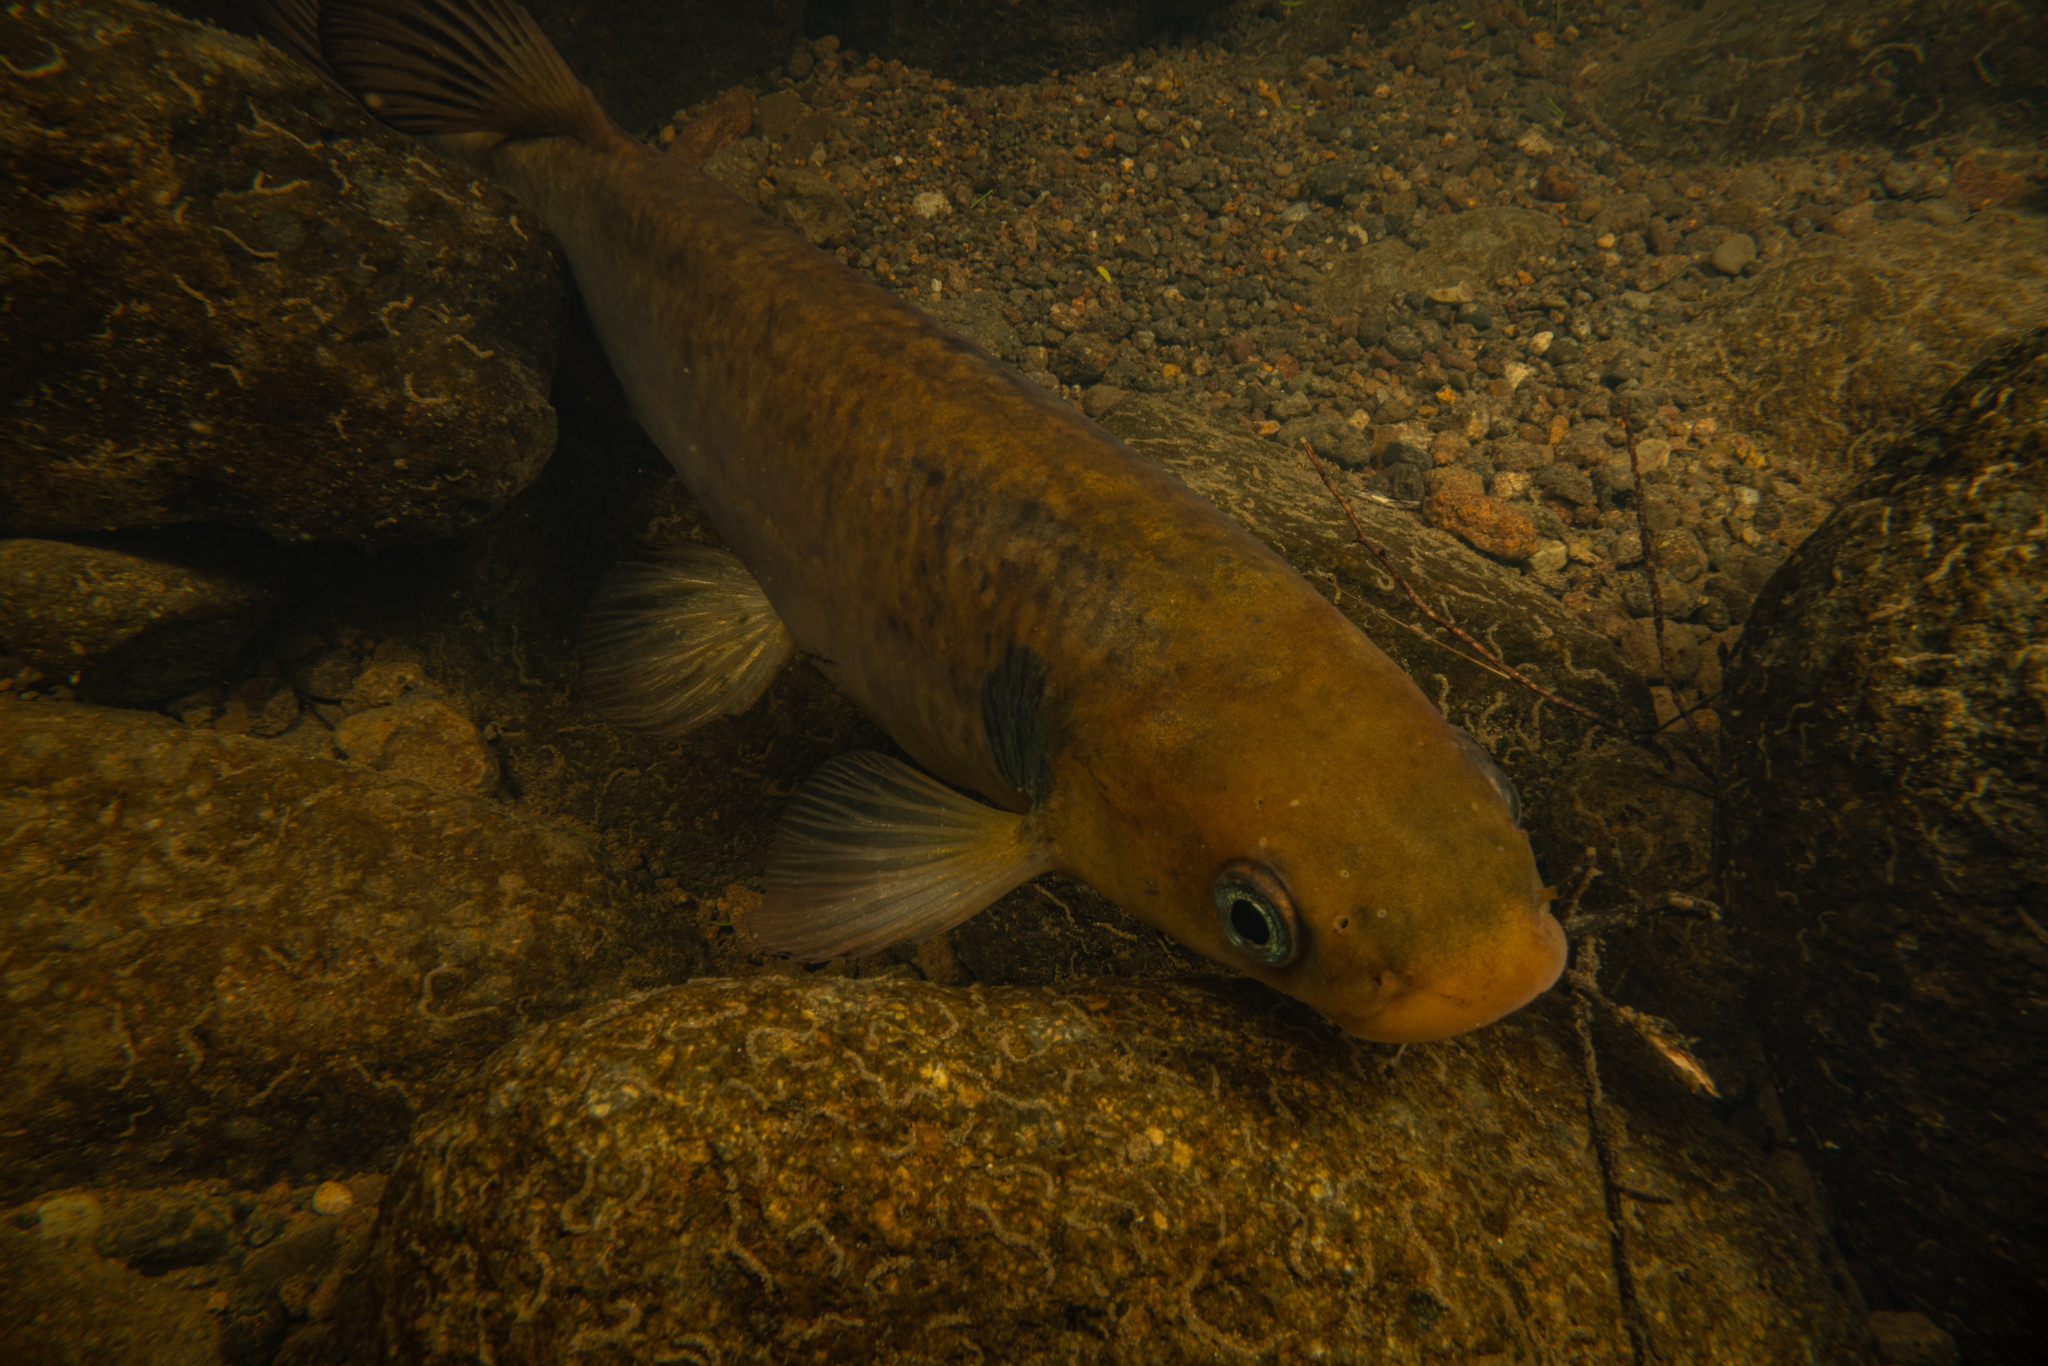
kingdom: Animalia
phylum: Chordata
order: Osmeriformes
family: Galaxiidae
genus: Galaxias
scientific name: Galaxias postvectis
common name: Shortjaw kokopu
